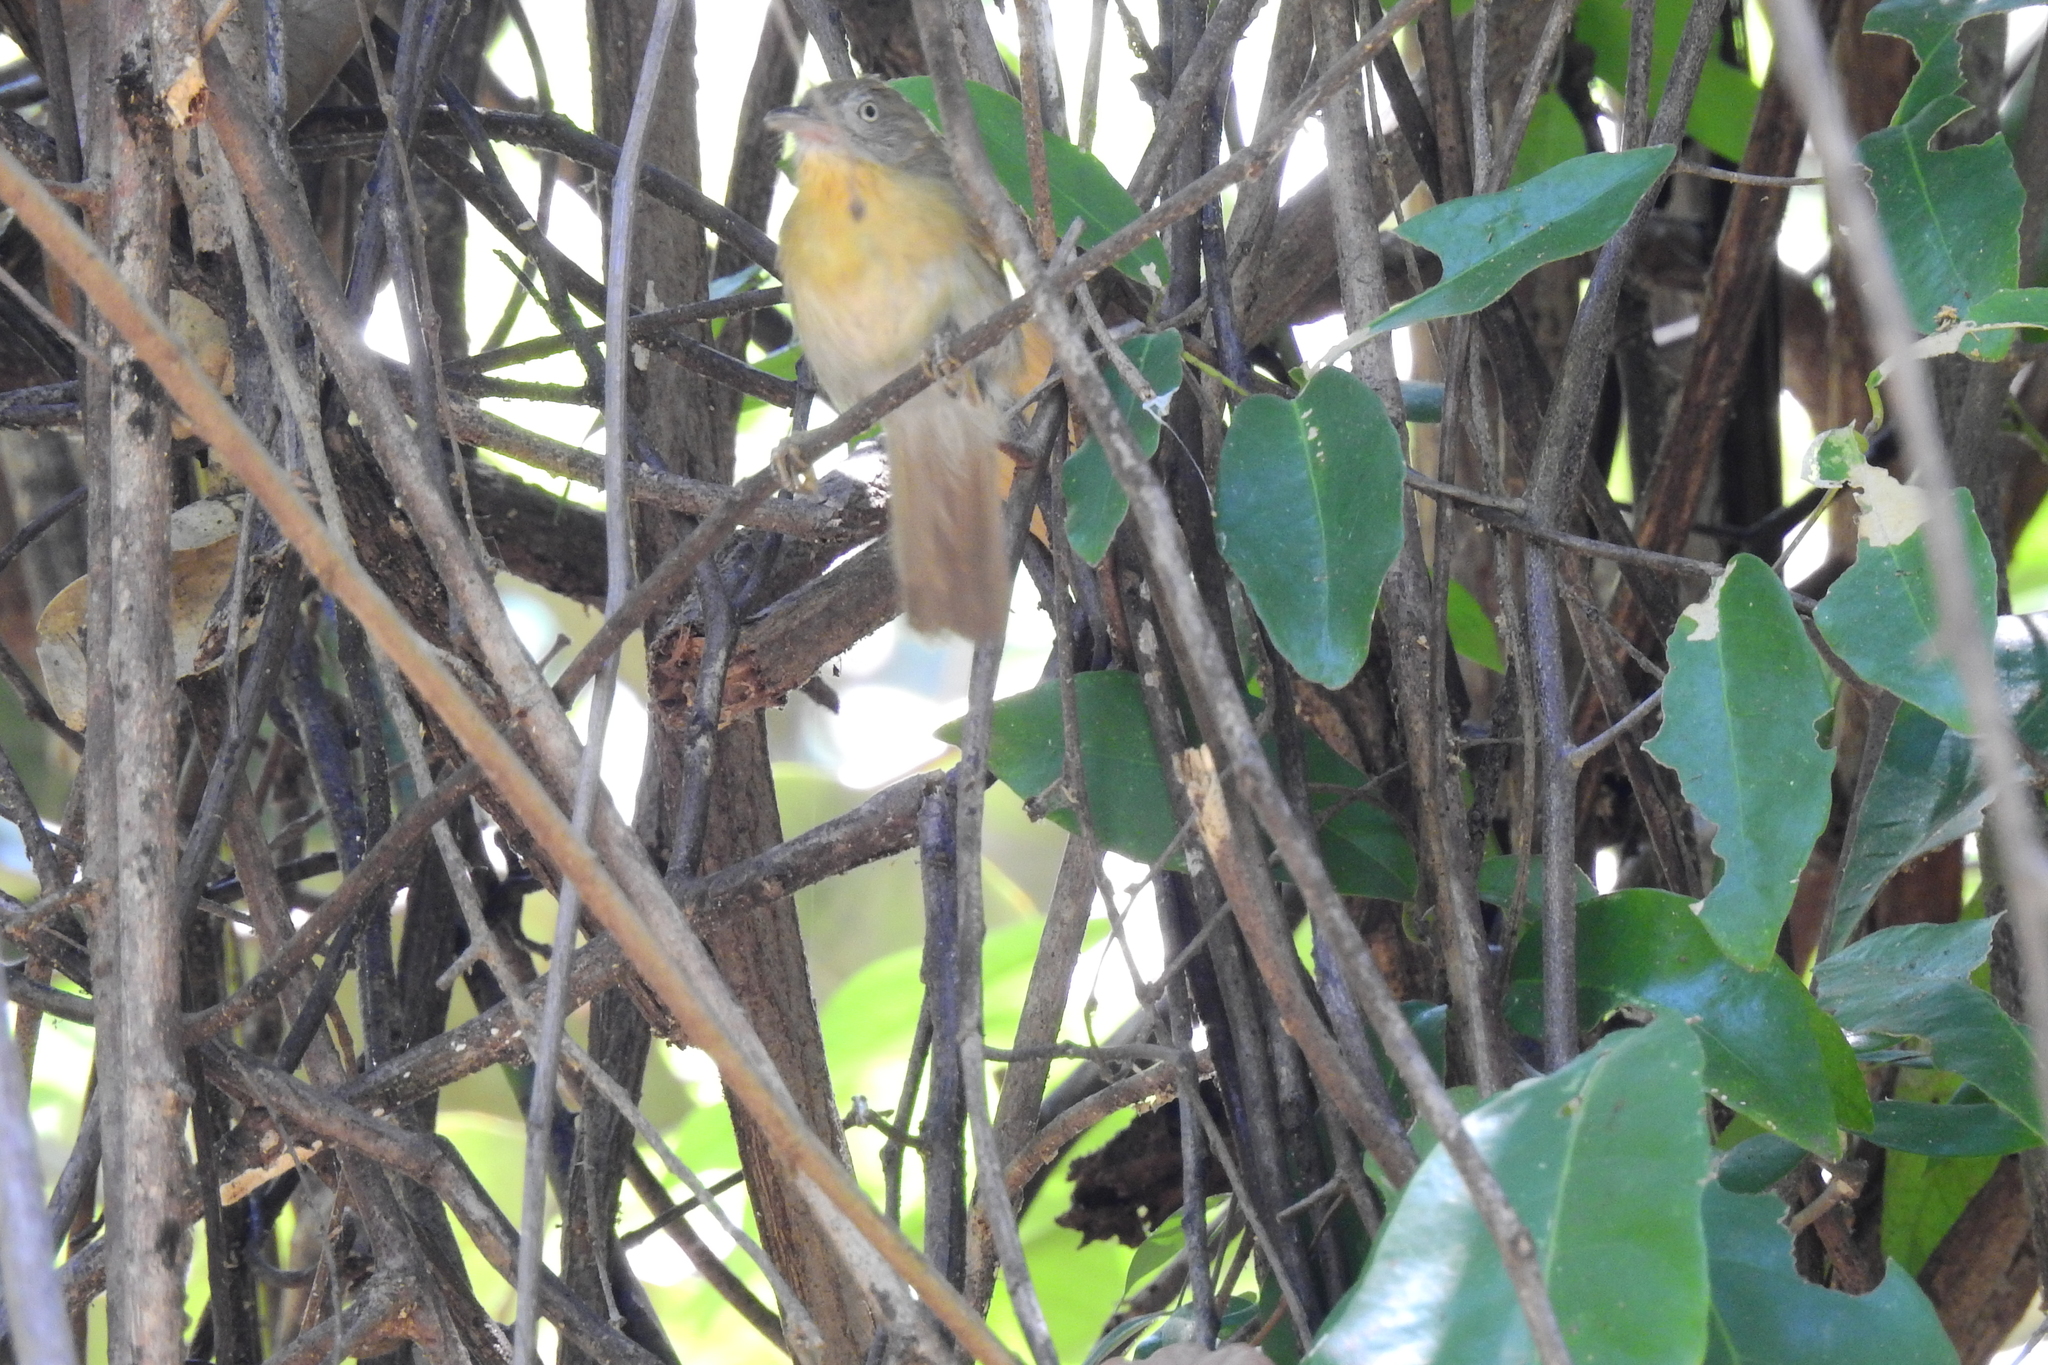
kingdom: Animalia
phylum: Chordata
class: Aves
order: Passeriformes
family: Timaliidae
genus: Macronus
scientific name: Macronus flavicollis
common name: Grey-cheeked tit-babbler
